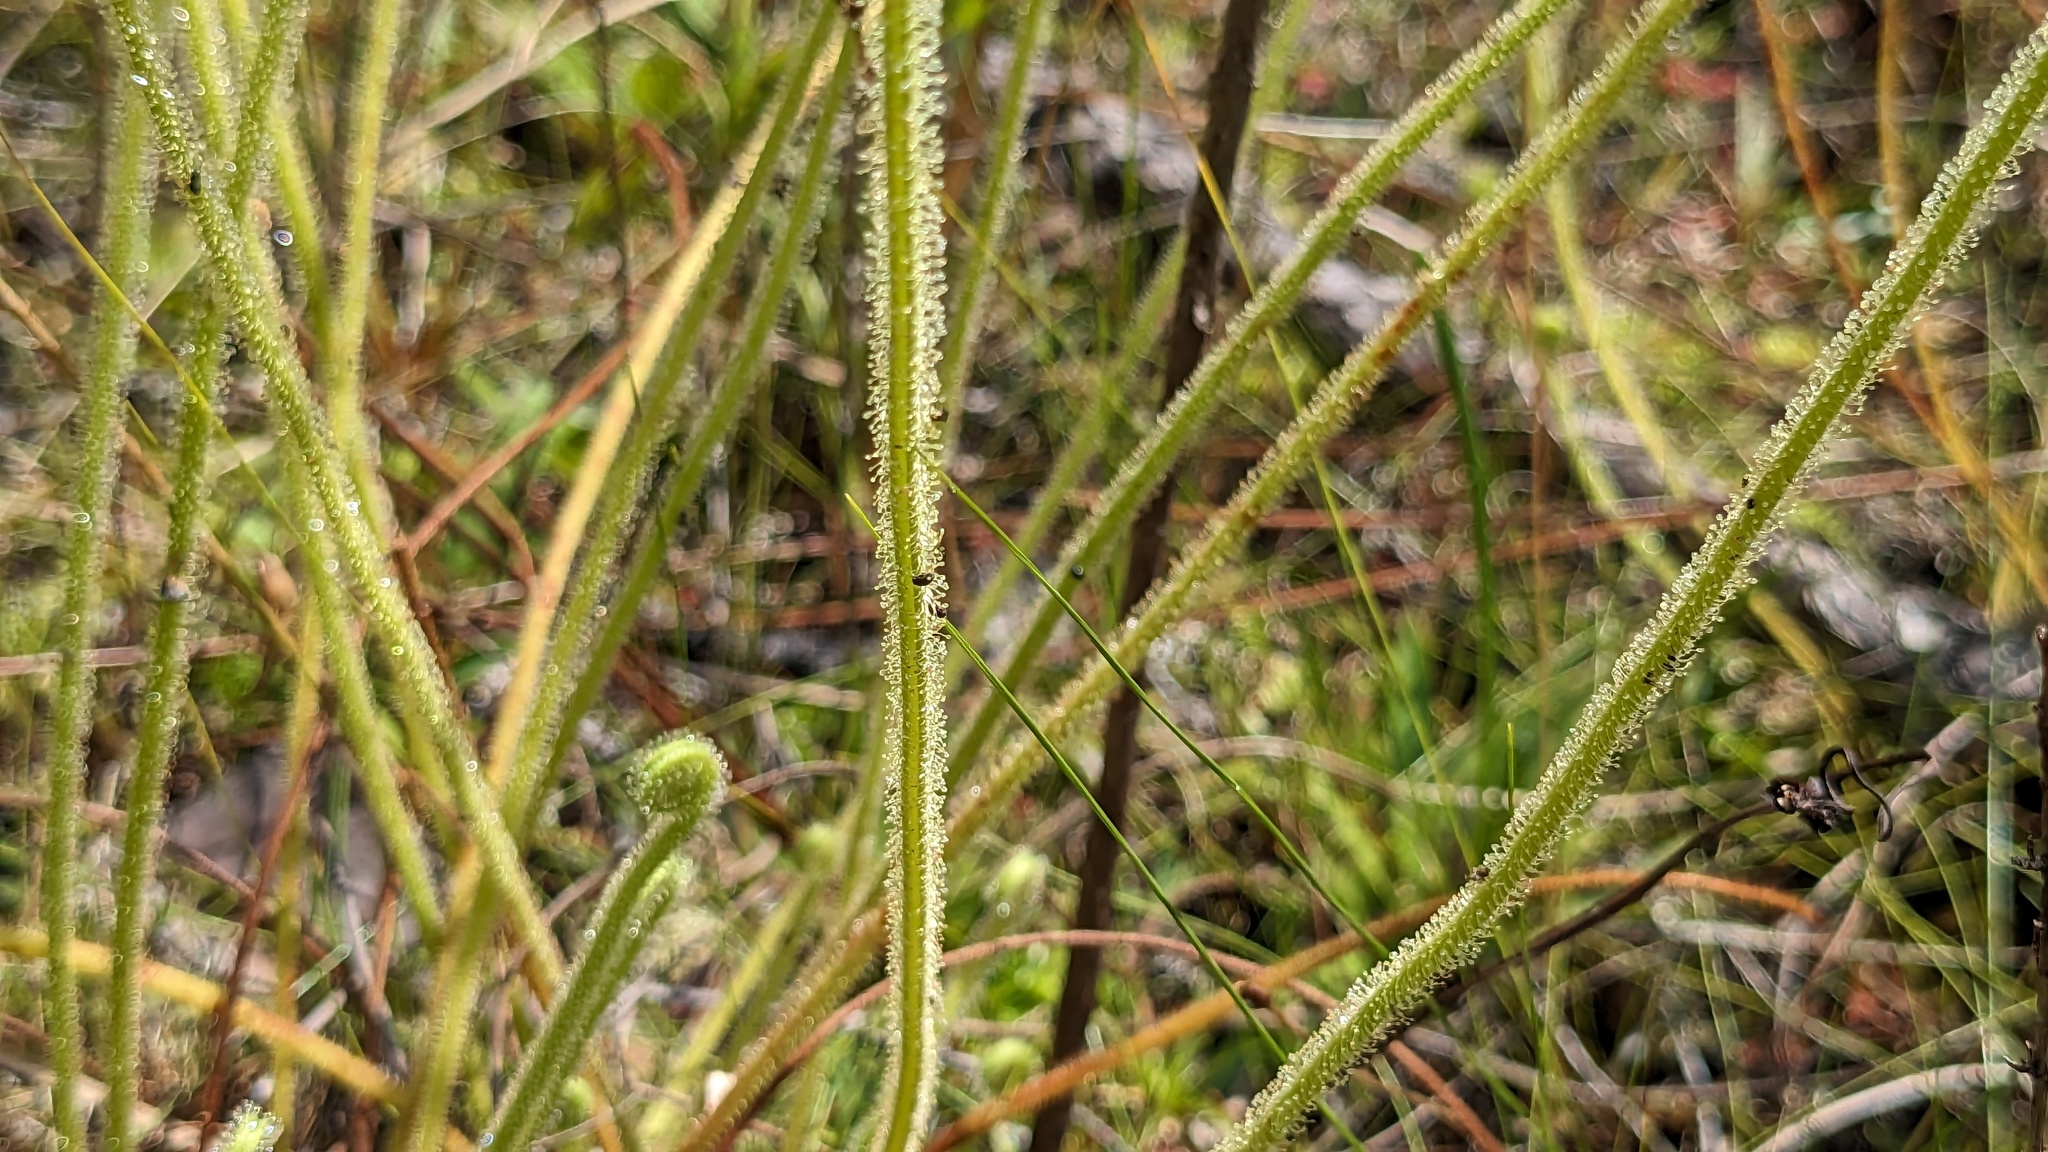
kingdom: Plantae
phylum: Tracheophyta
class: Magnoliopsida
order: Caryophyllales
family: Droseraceae
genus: Drosera
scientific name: Drosera filiformis
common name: Dew-thread
